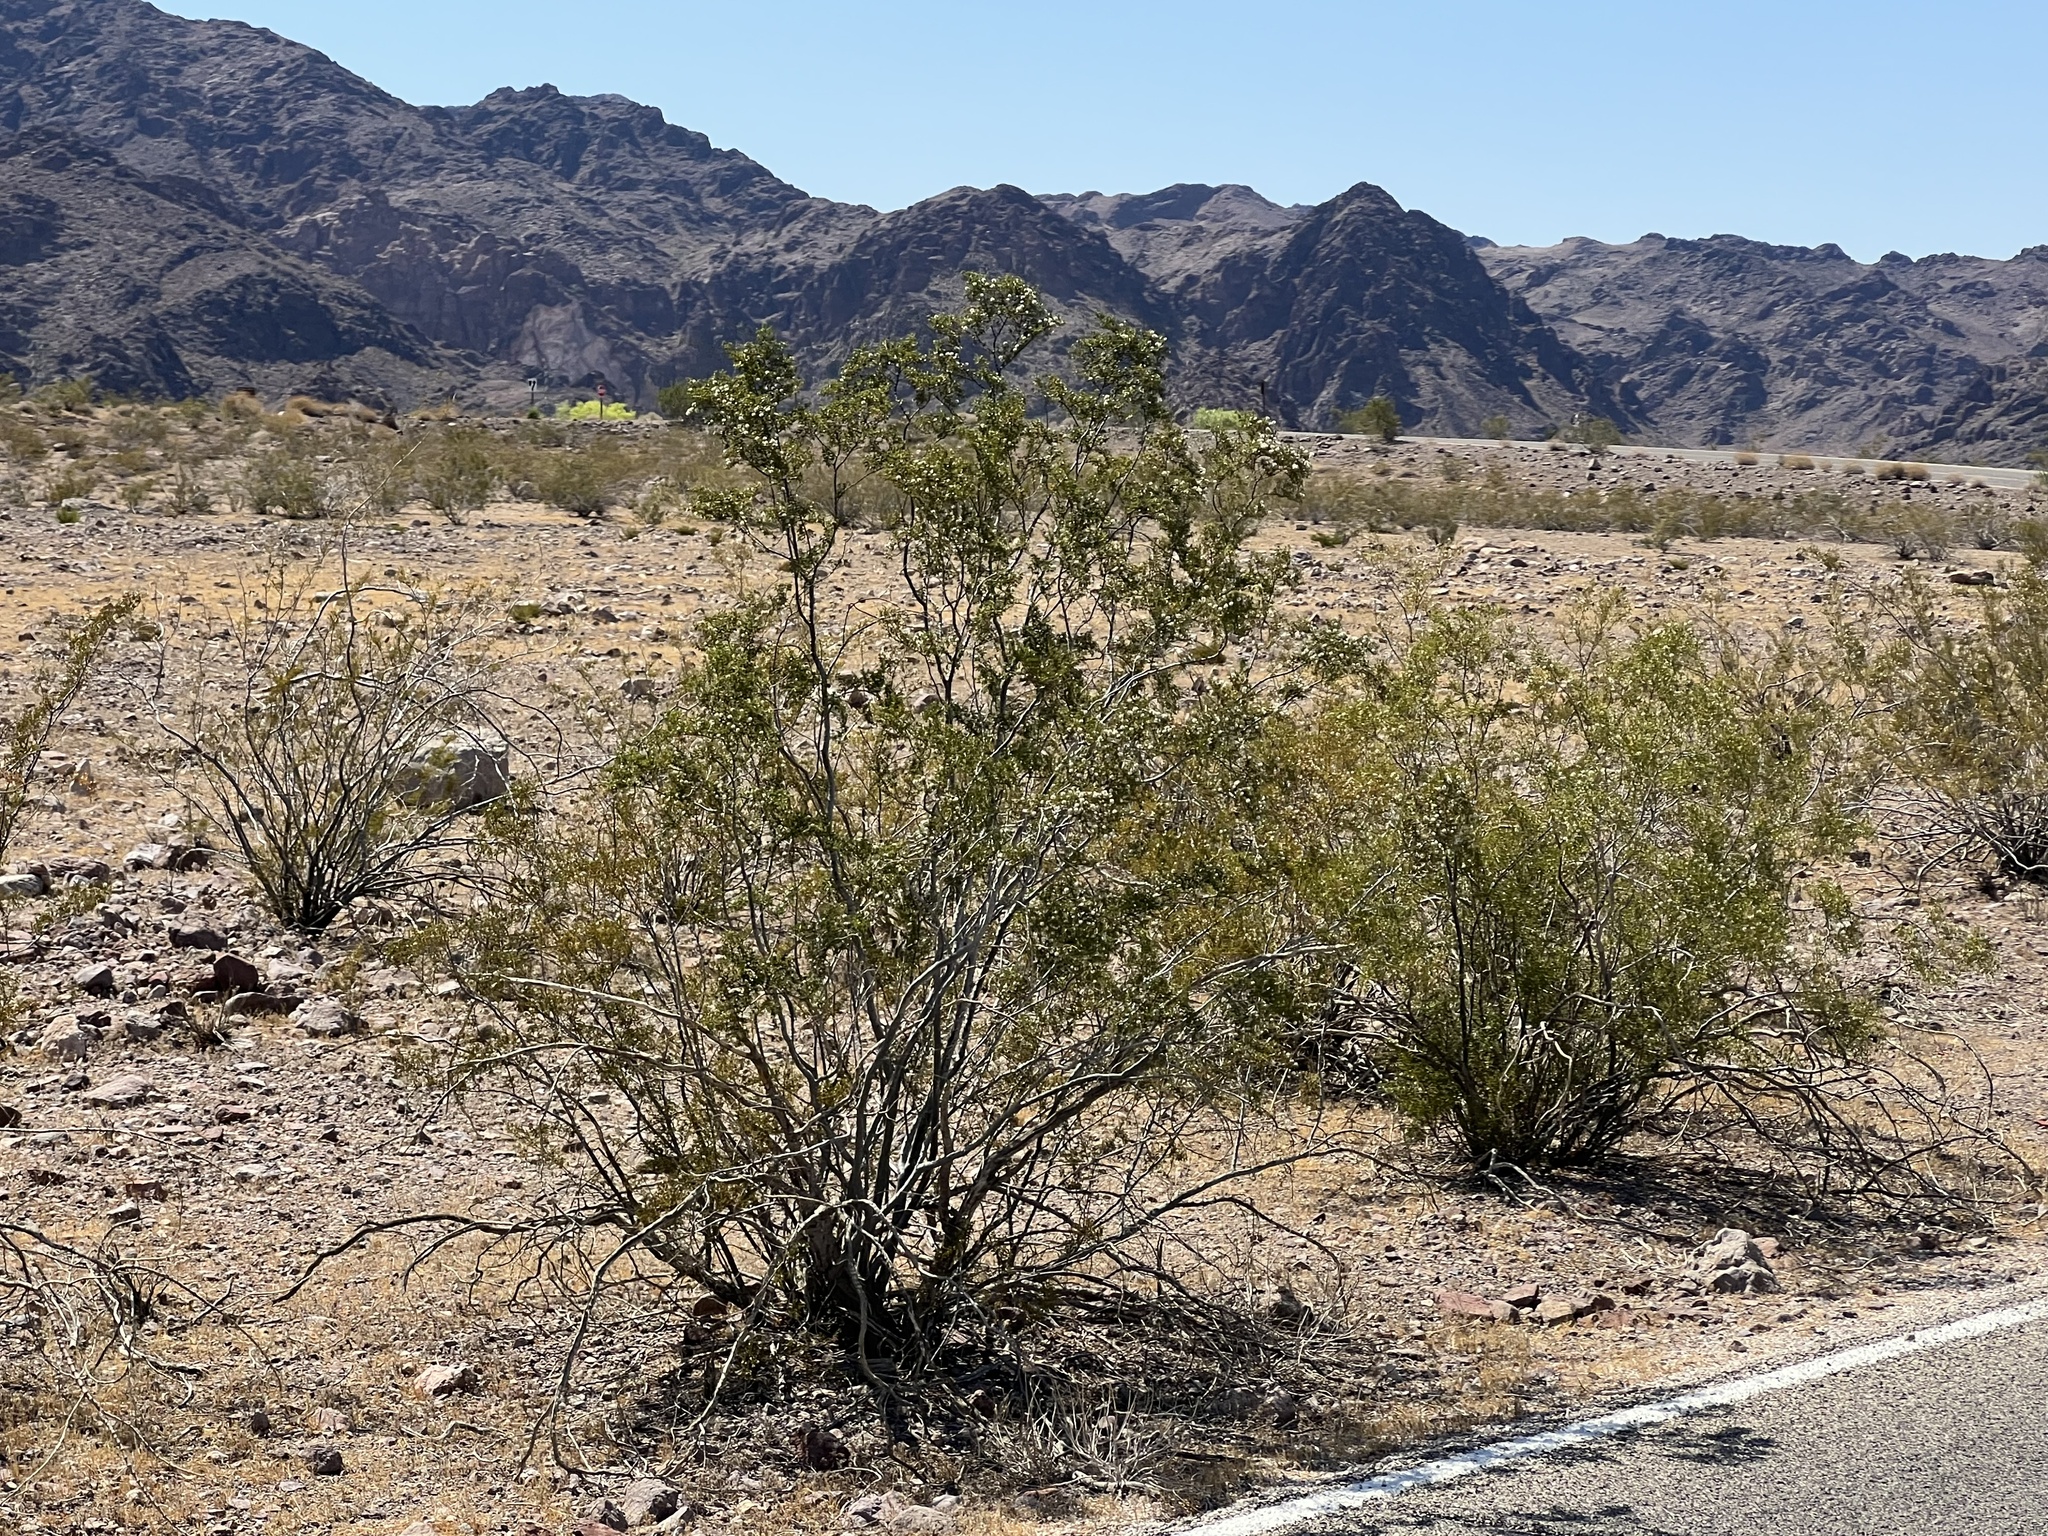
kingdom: Plantae
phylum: Tracheophyta
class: Magnoliopsida
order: Zygophyllales
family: Zygophyllaceae
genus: Larrea
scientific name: Larrea tridentata
